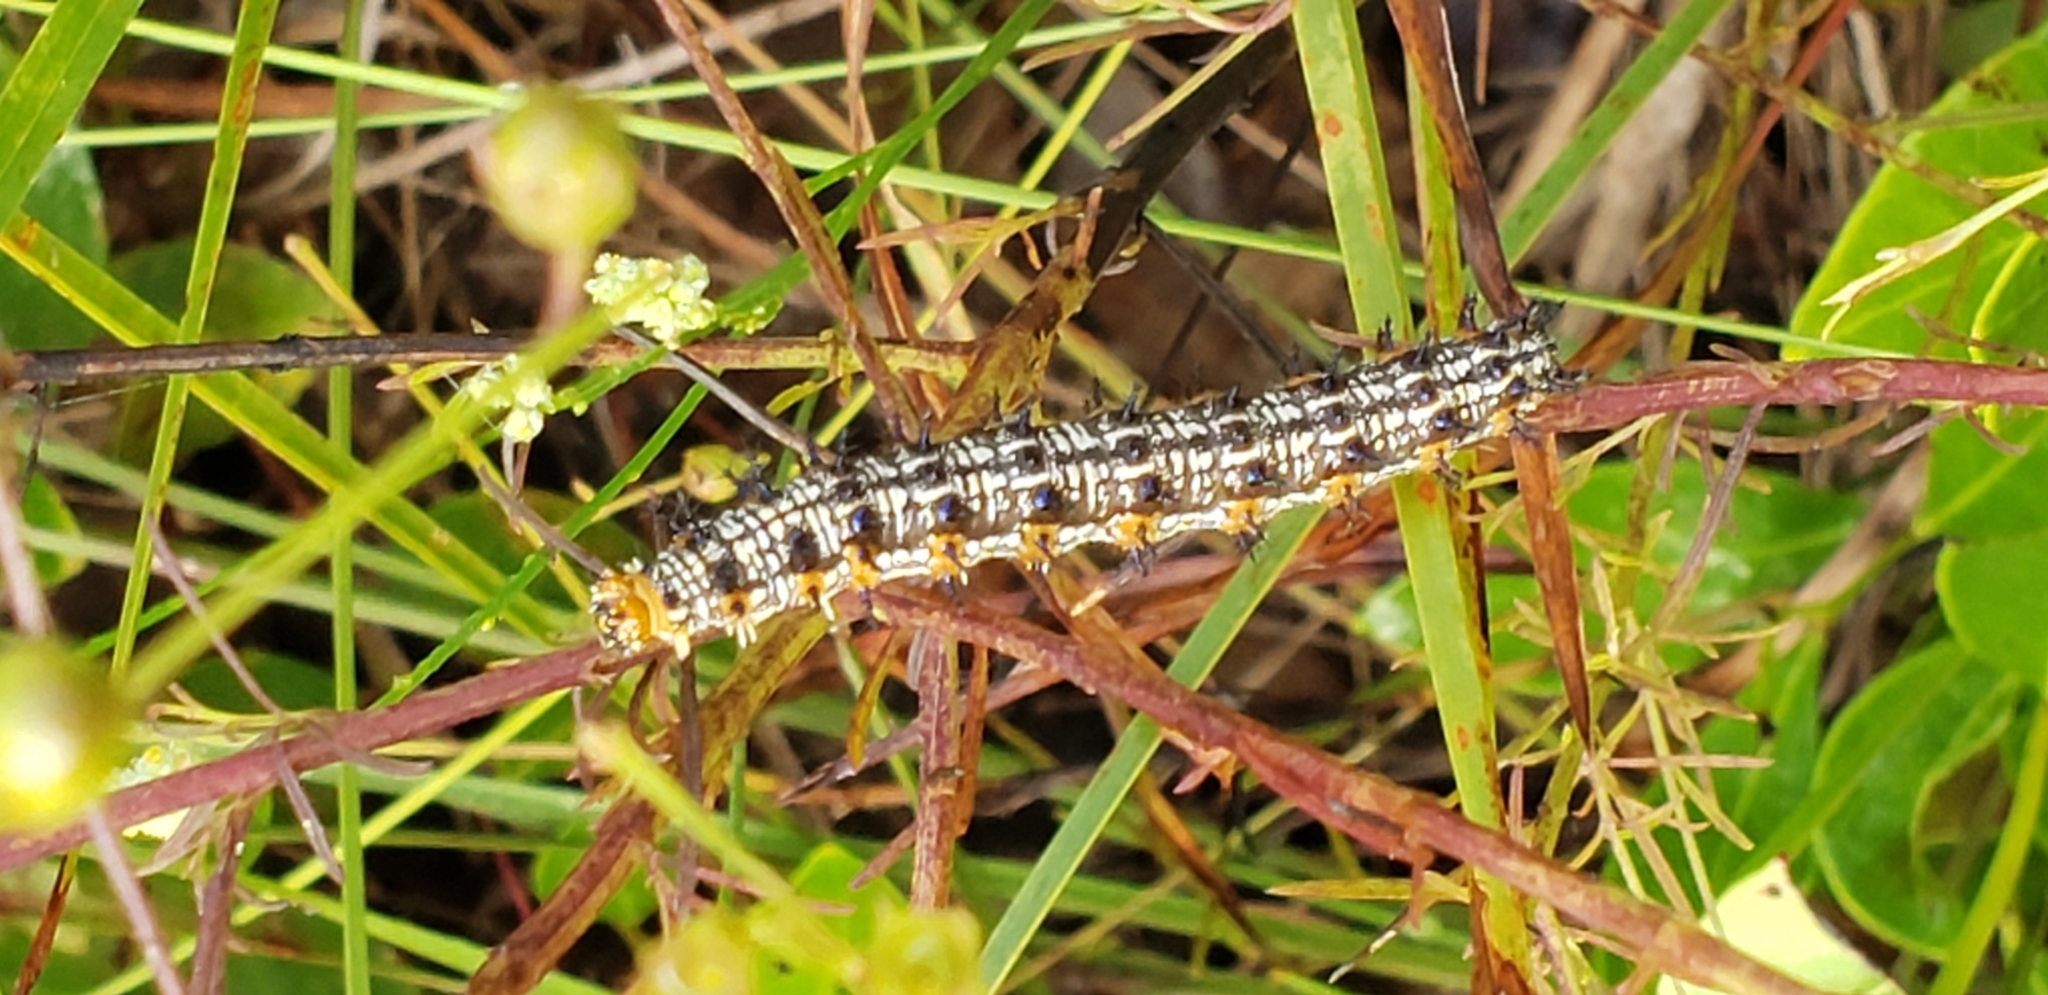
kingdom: Animalia
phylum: Arthropoda
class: Insecta
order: Lepidoptera
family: Nymphalidae
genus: Junonia
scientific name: Junonia coenia
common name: Common buckeye
